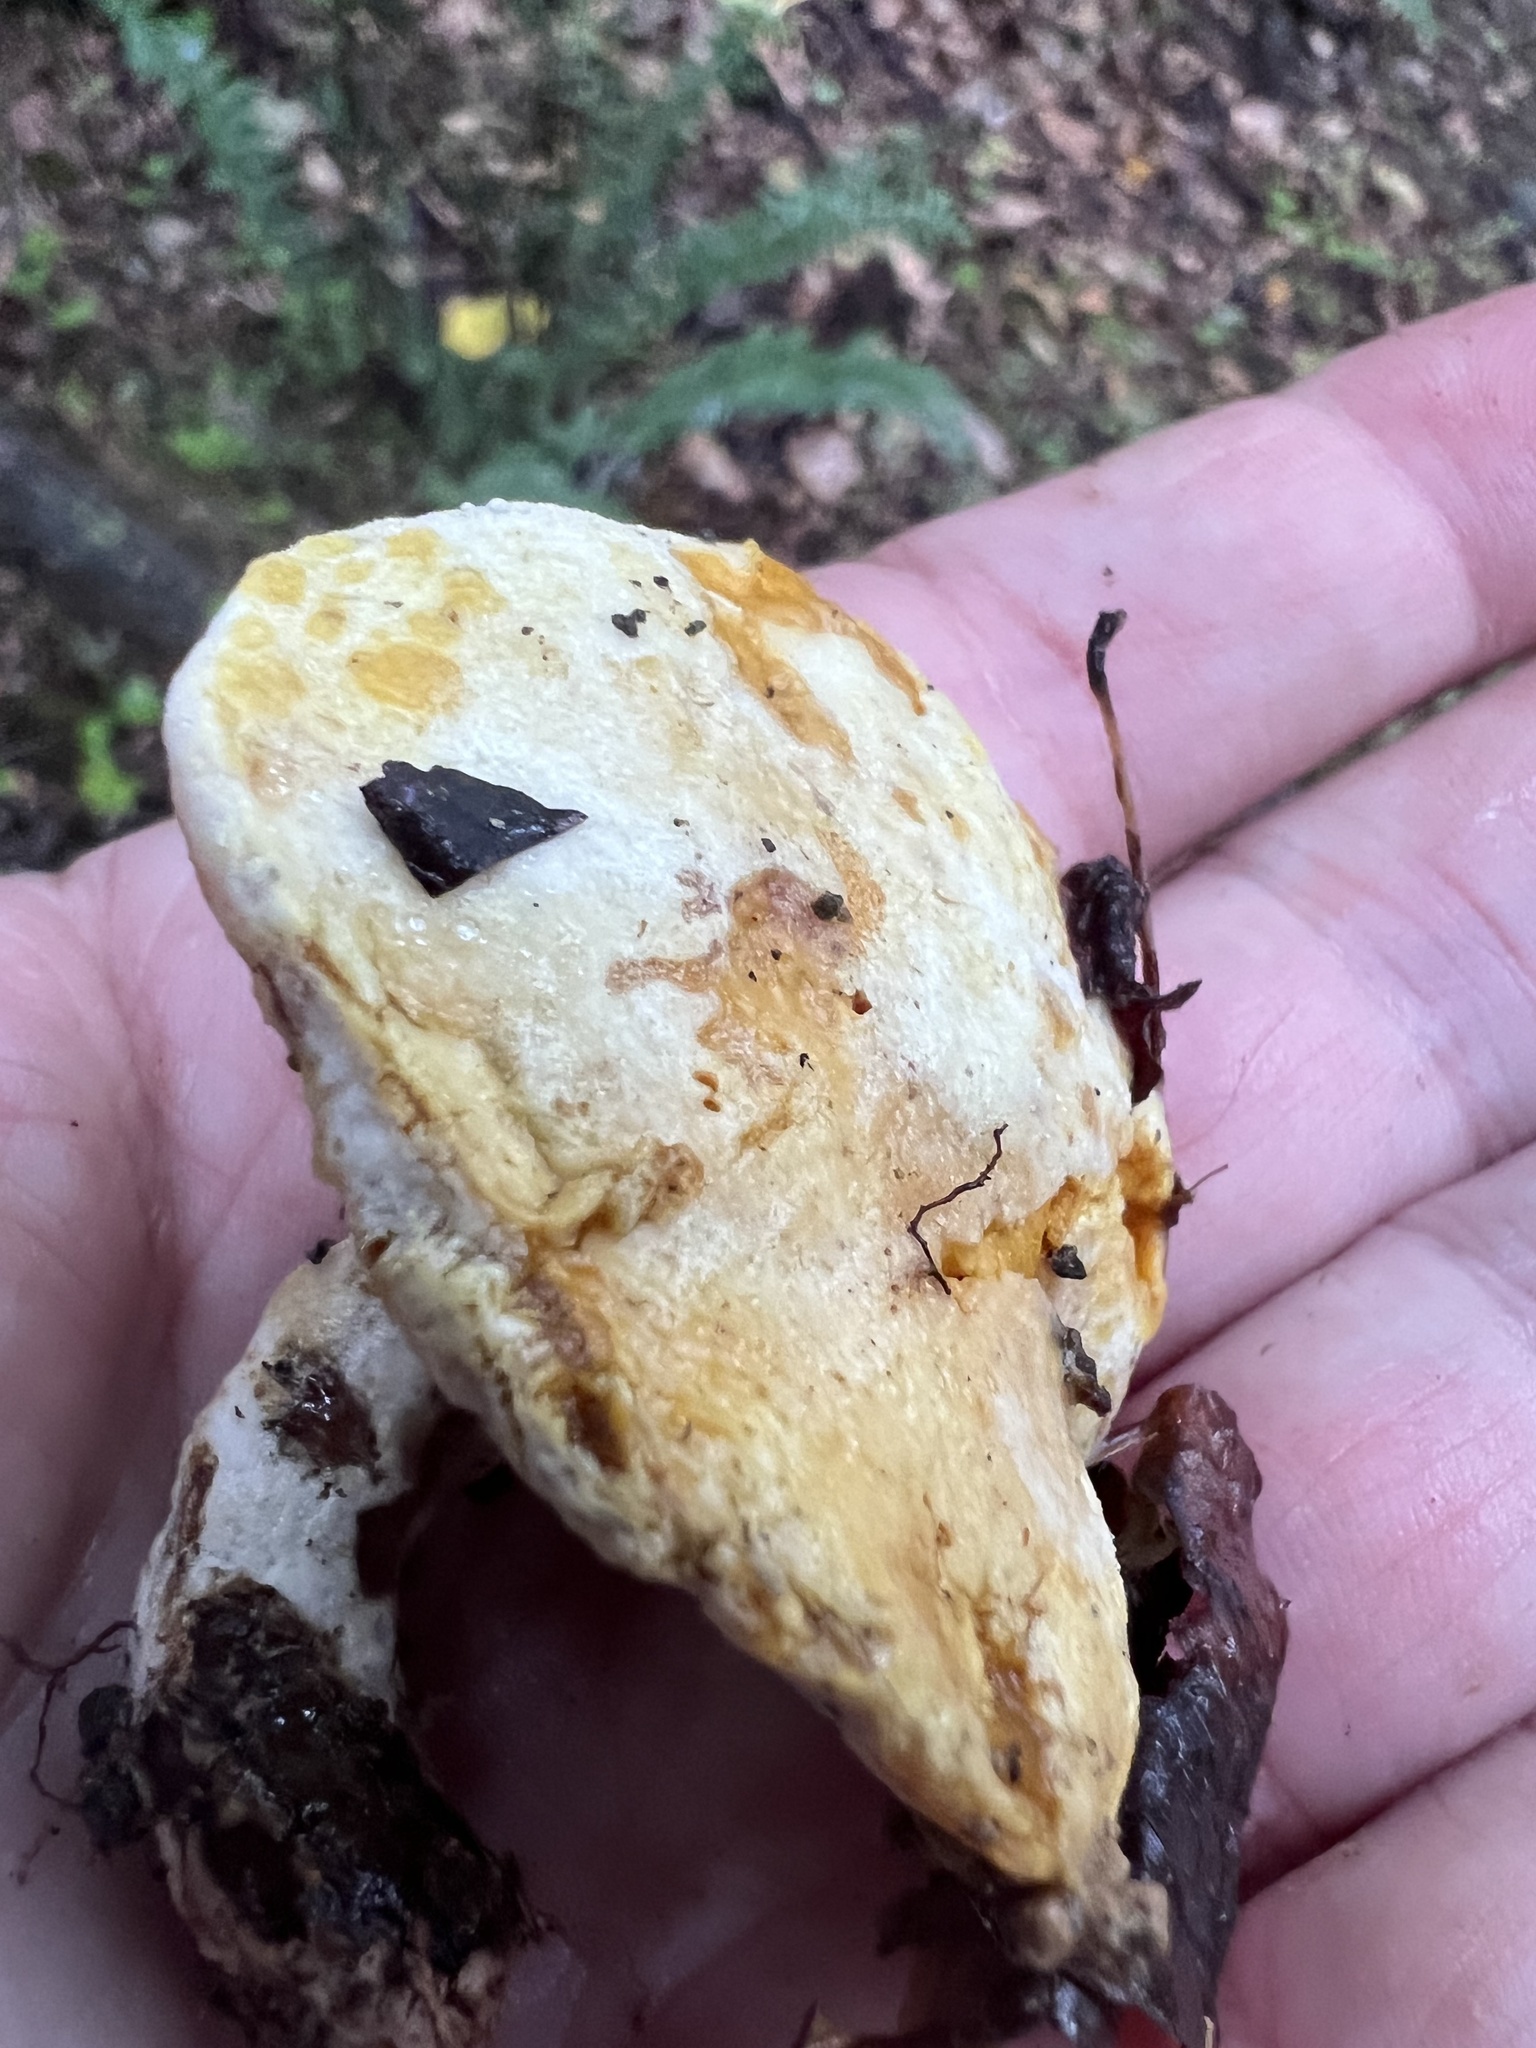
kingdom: Fungi
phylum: Ascomycota
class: Sordariomycetes
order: Hypocreales
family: Hypocreaceae
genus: Hypomyces
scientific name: Hypomyces chrysospermus
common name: Bolete mould
